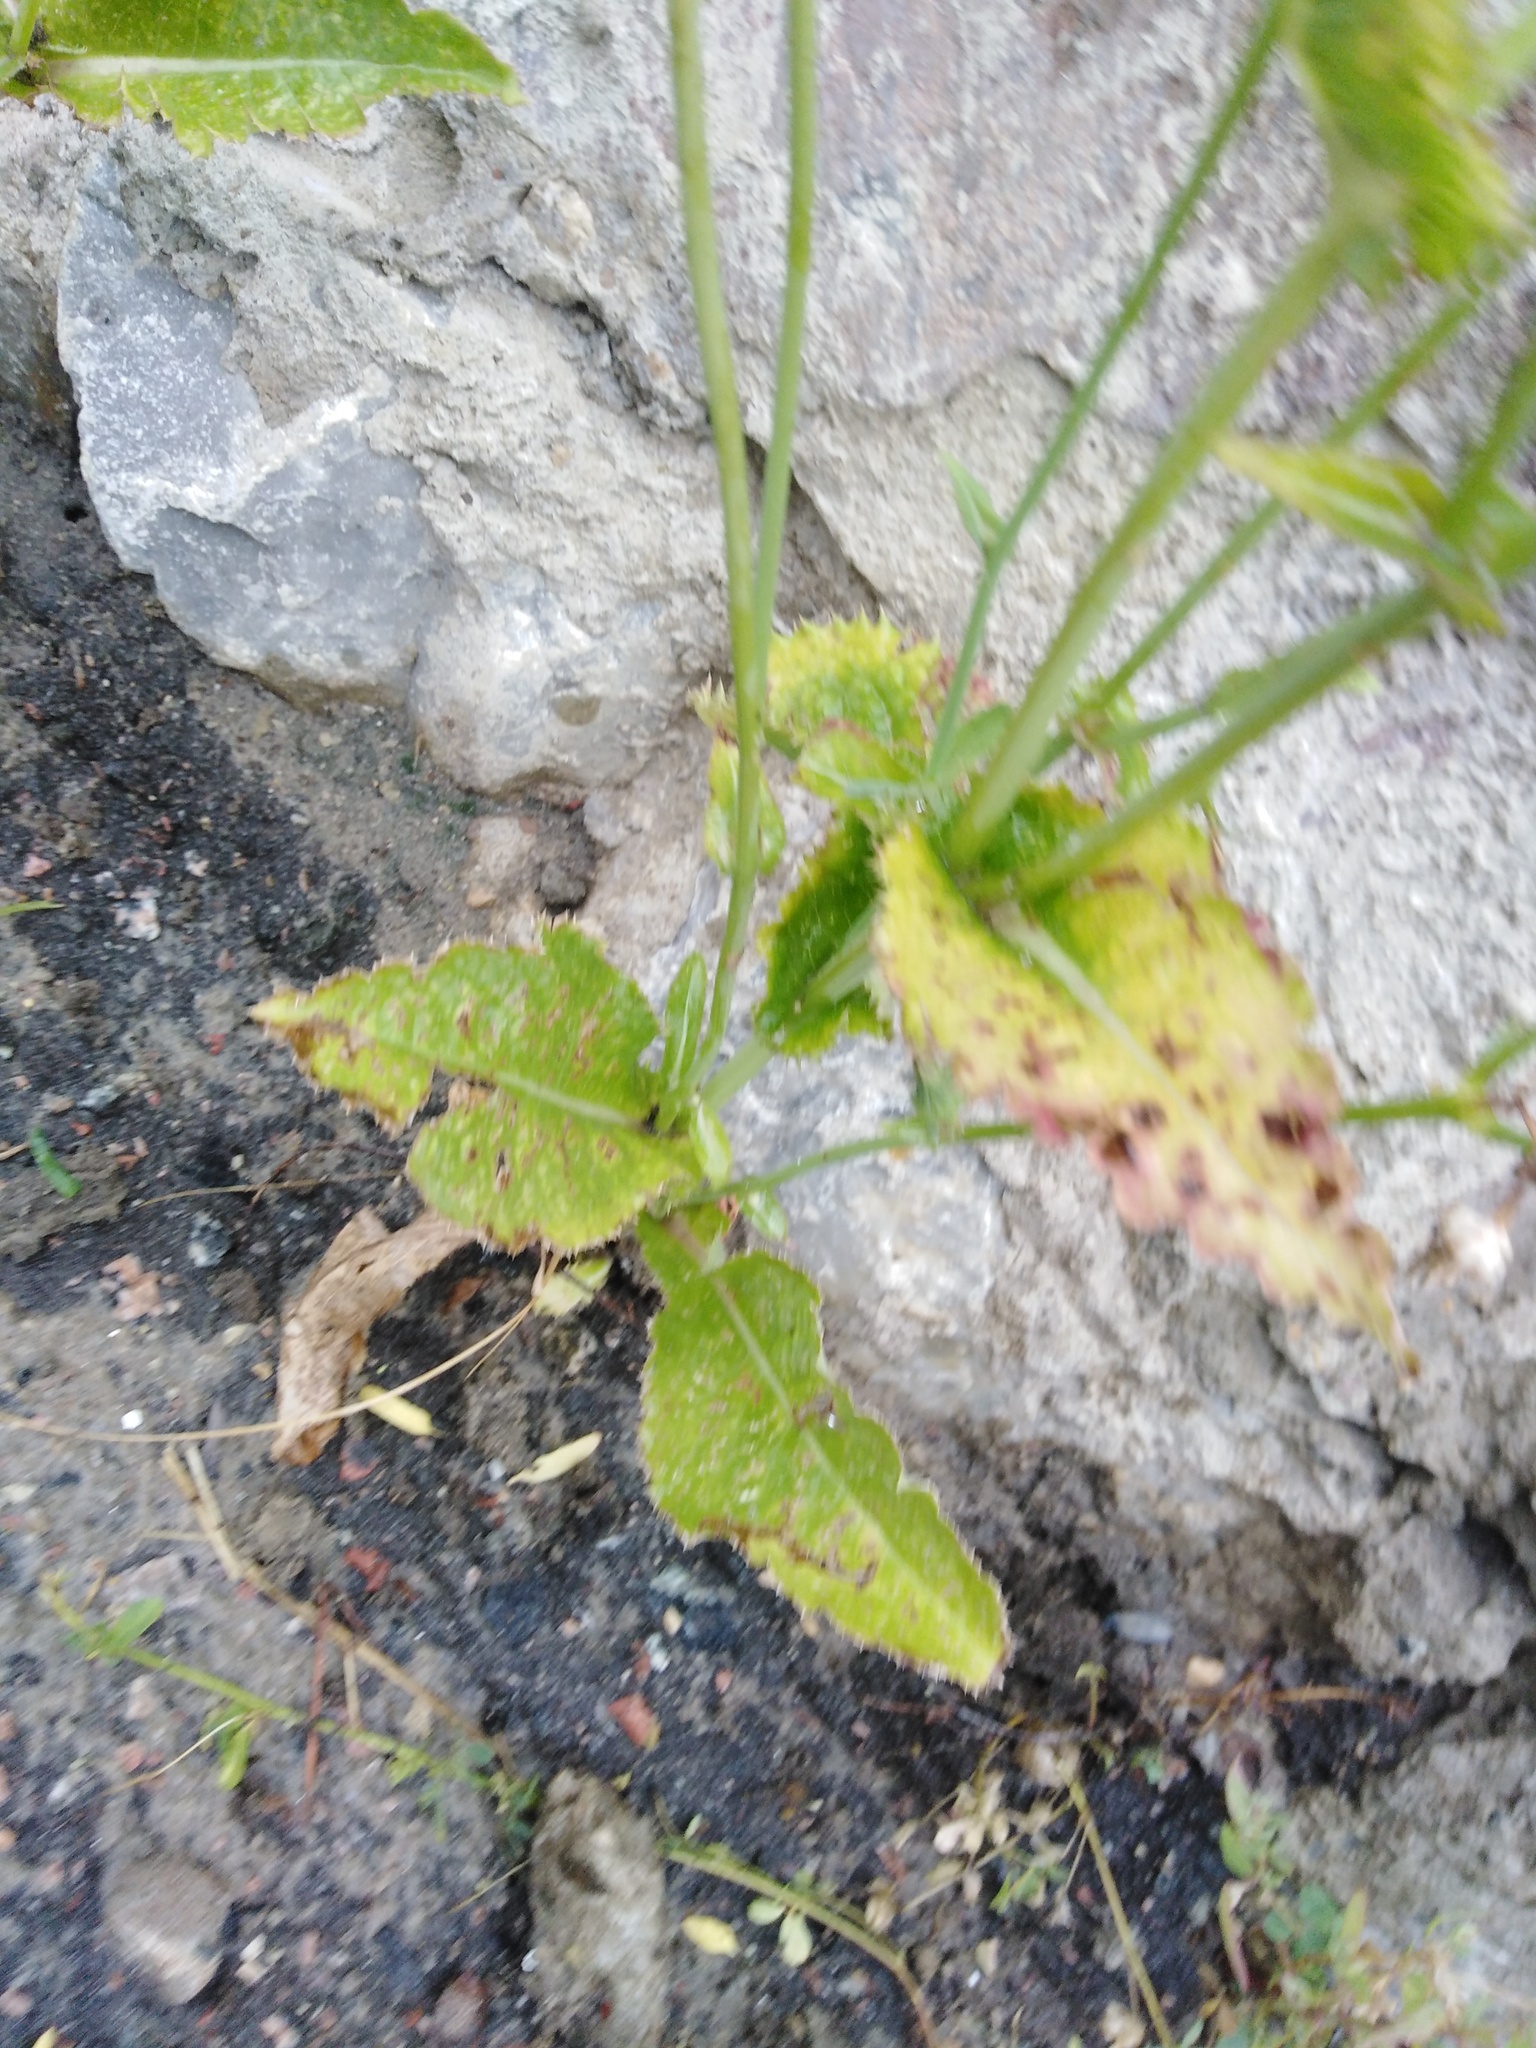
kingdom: Plantae
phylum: Tracheophyta
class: Magnoliopsida
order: Asterales
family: Asteraceae
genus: Sonchus
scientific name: Sonchus asper
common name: Prickly sow-thistle
